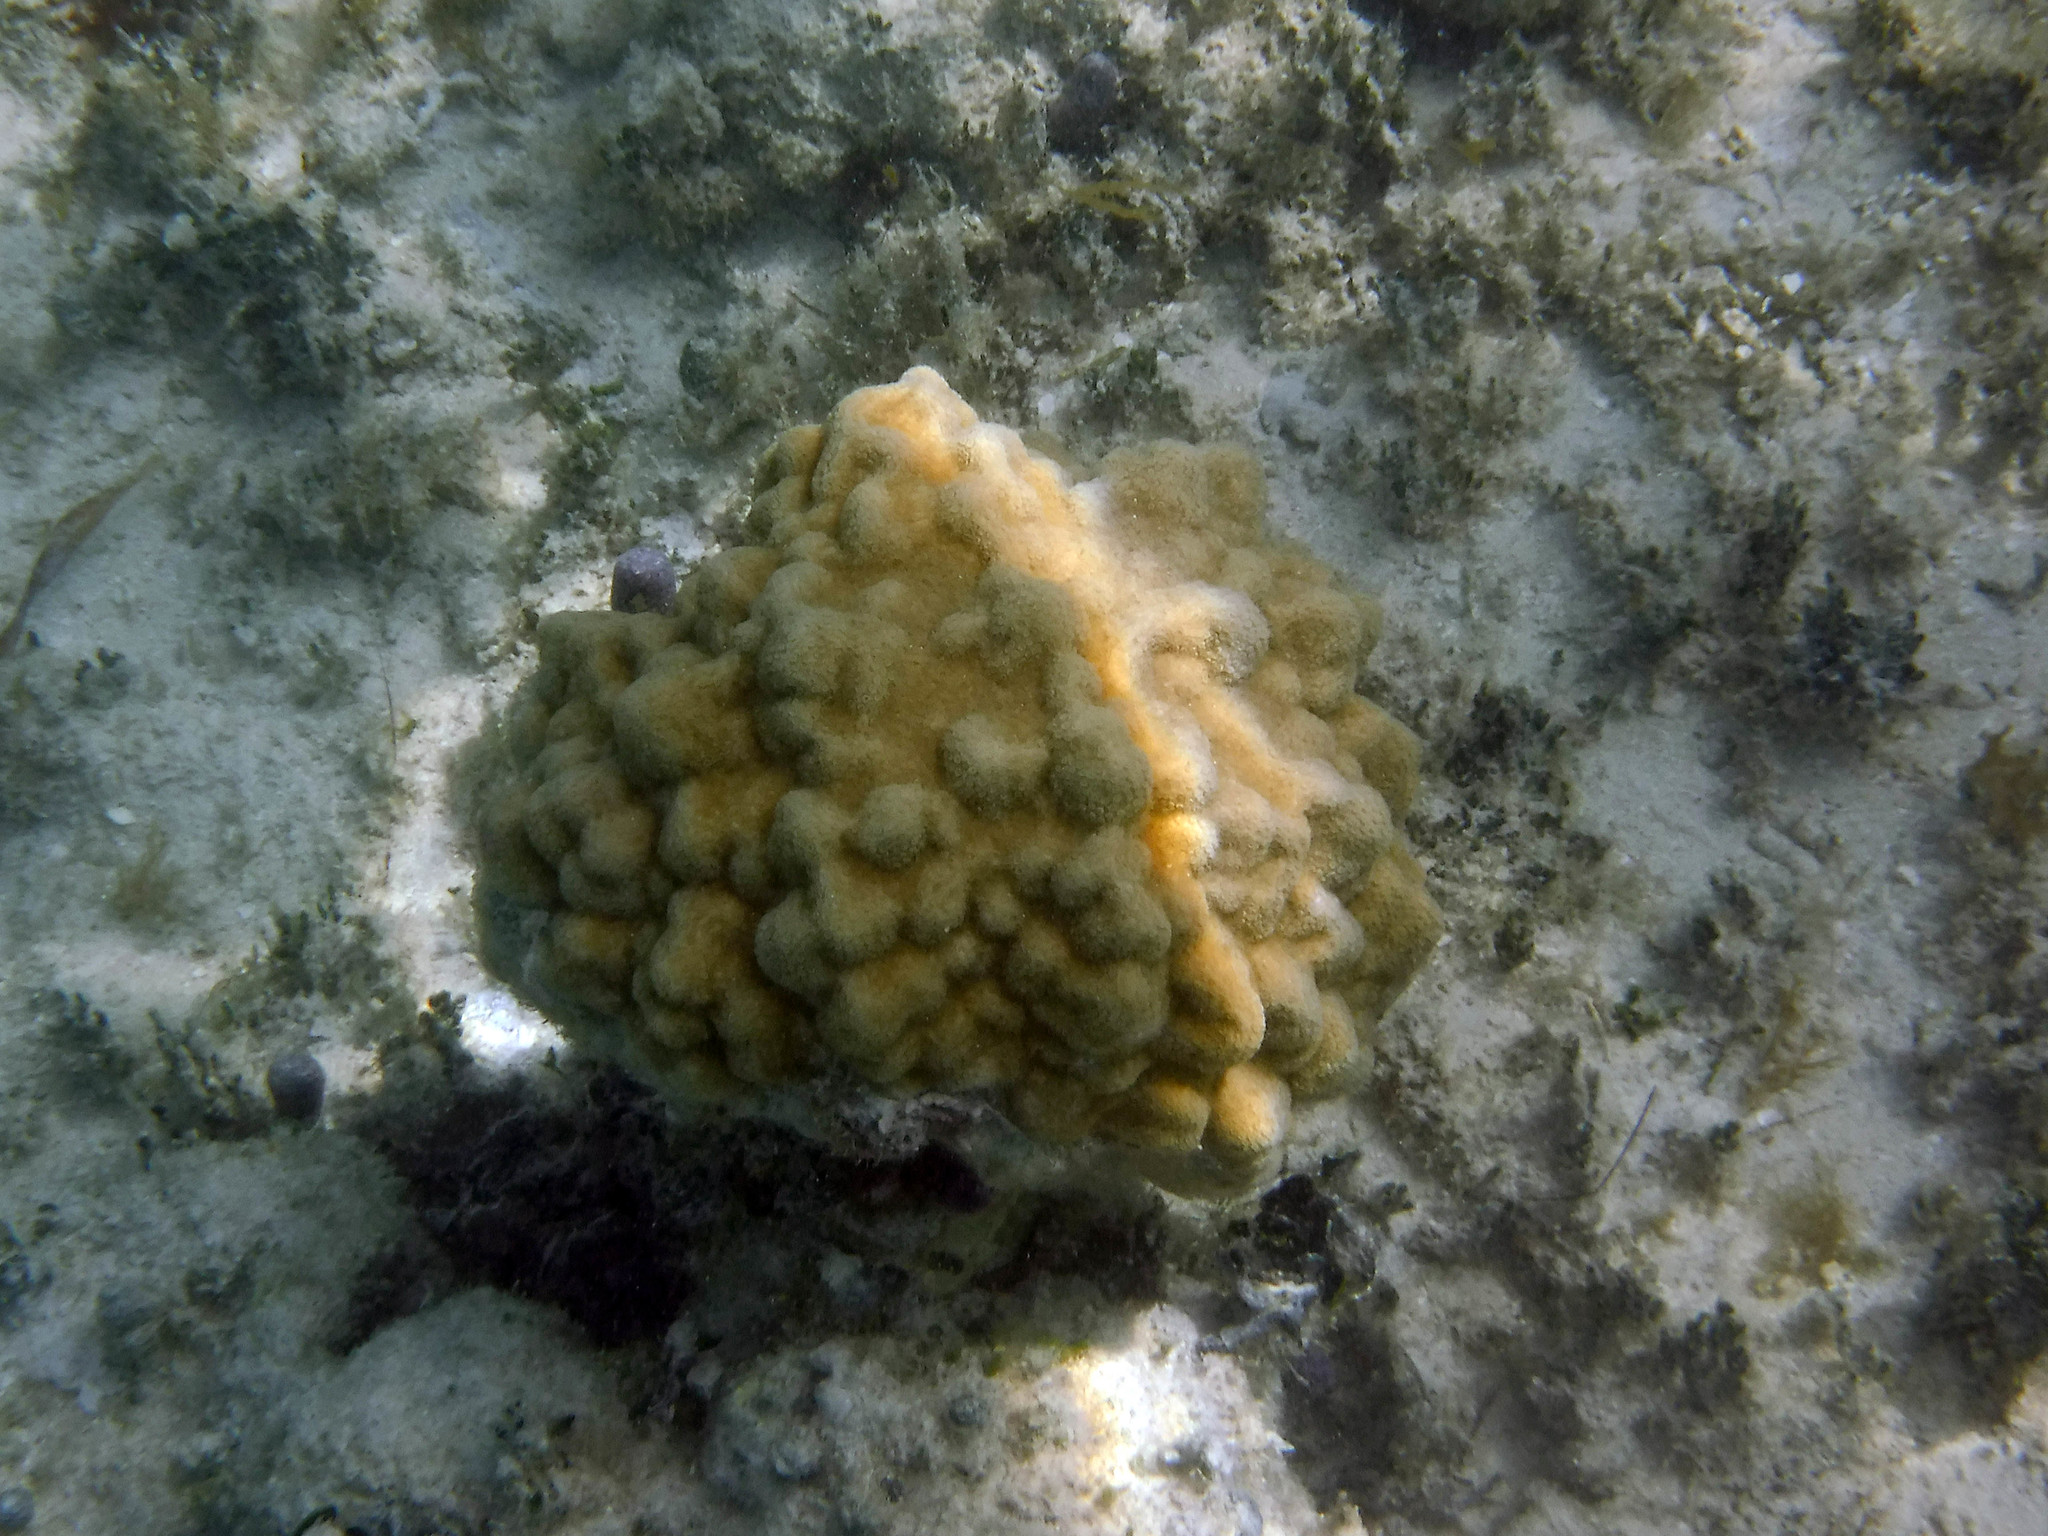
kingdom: Animalia
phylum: Cnidaria
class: Anthozoa
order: Scleractinia
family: Poritidae
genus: Porites
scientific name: Porites astreoides
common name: Mustard hill coral
